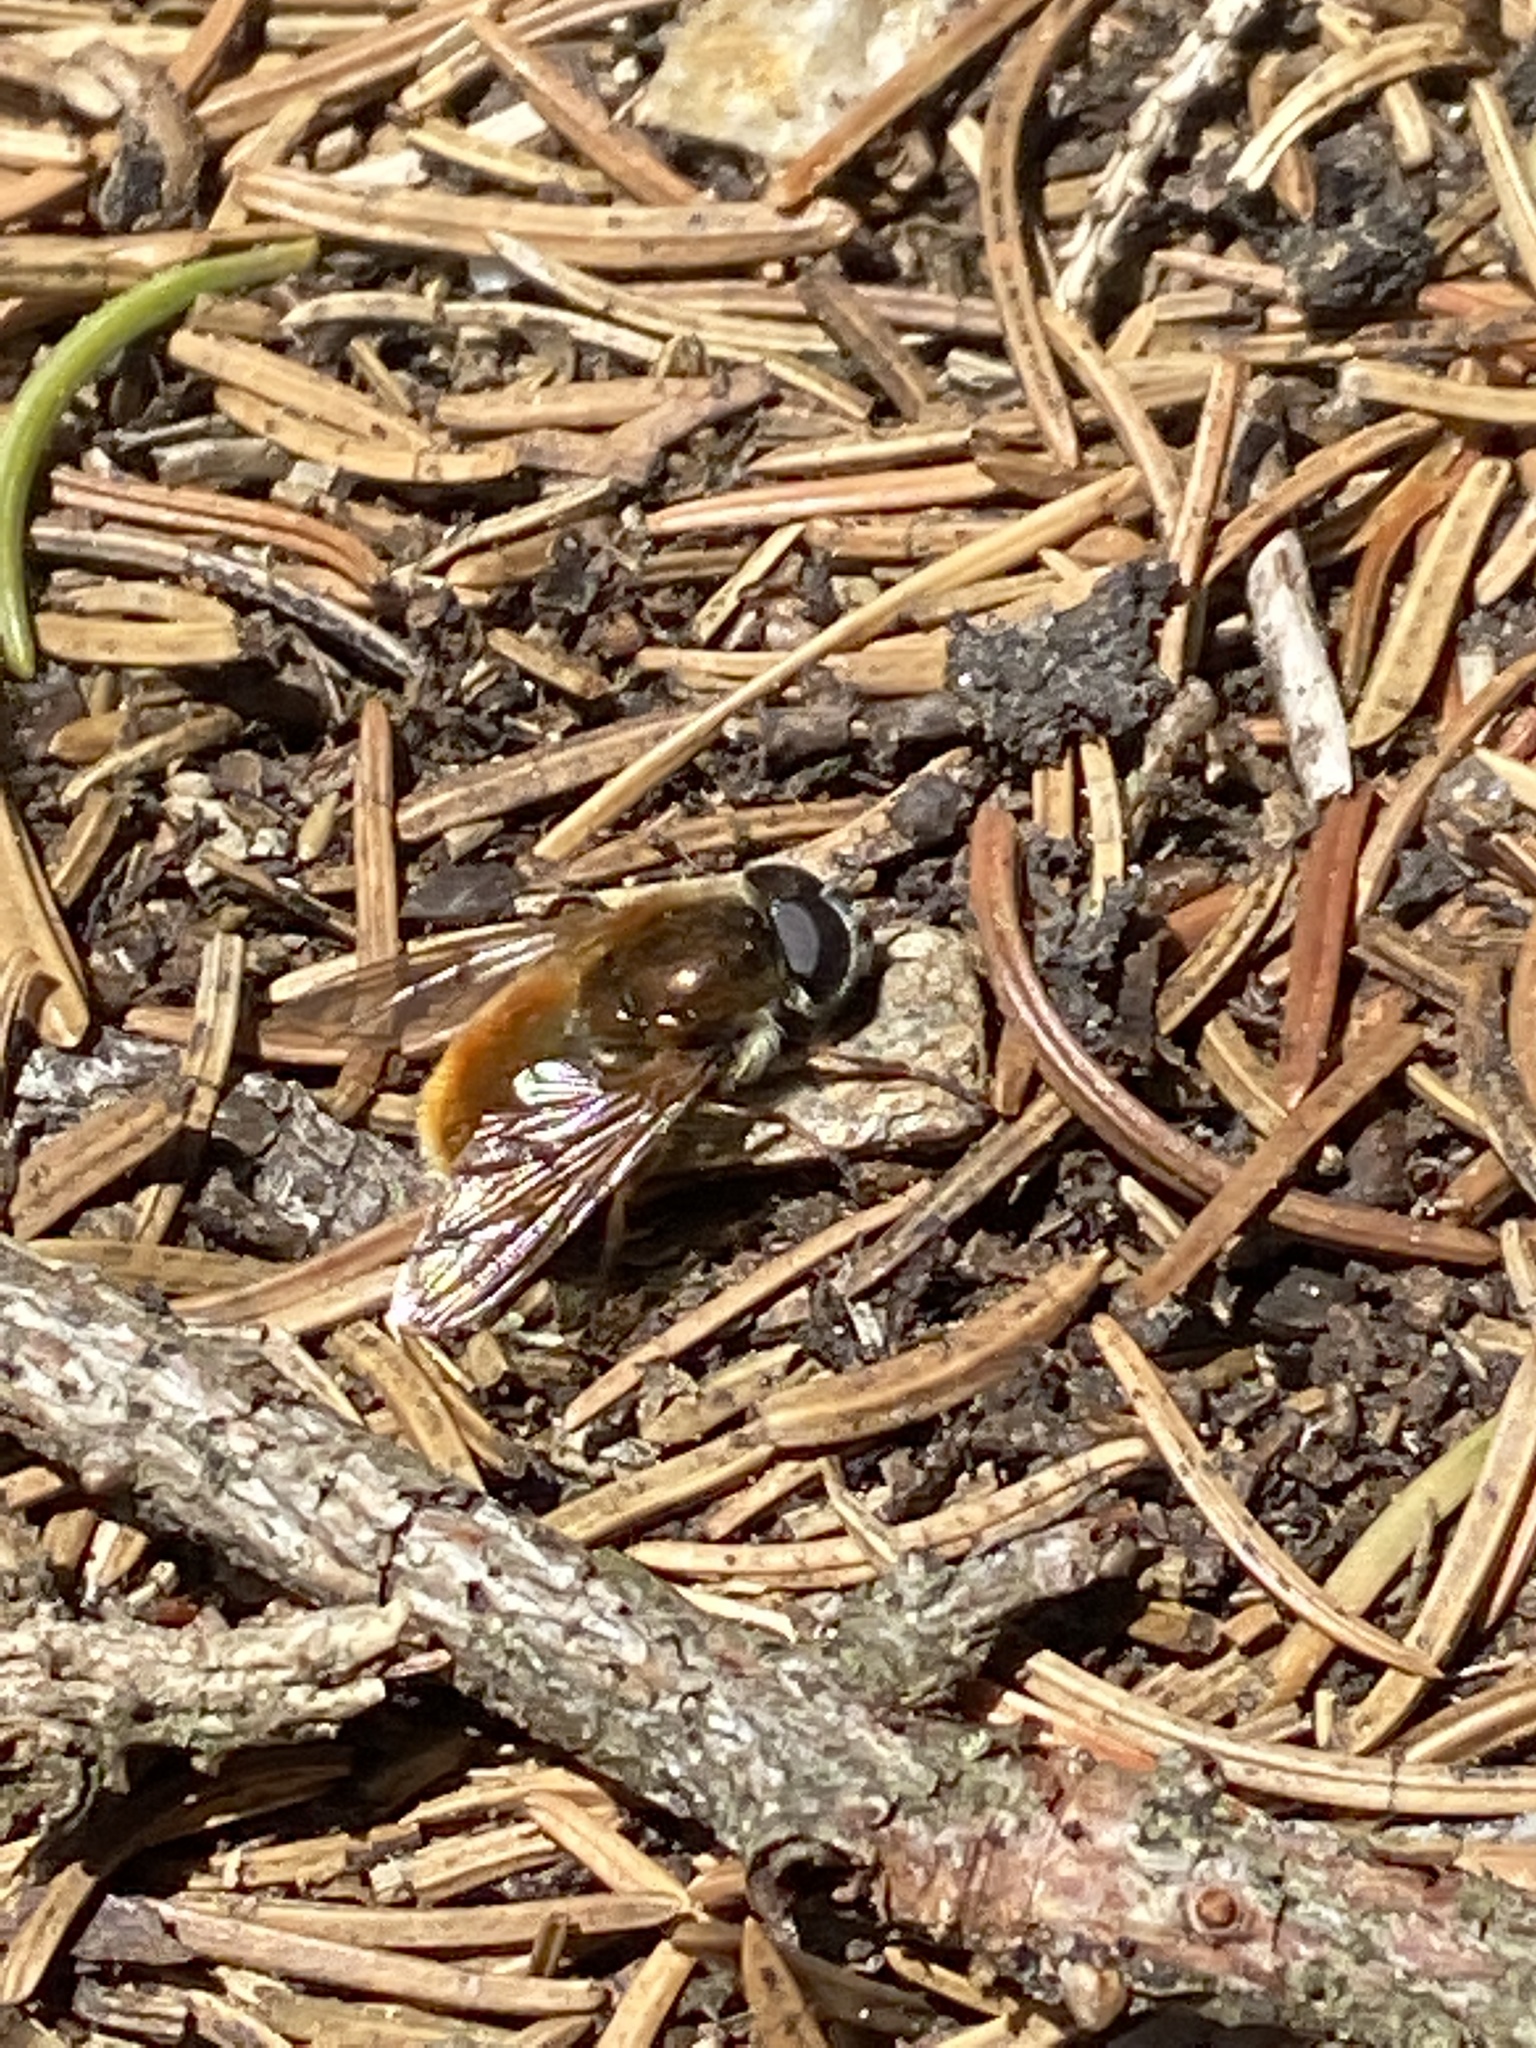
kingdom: Animalia
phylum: Arthropoda
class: Insecta
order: Diptera
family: Syrphidae
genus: Cheilosia
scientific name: Cheilosia chrysocoma
